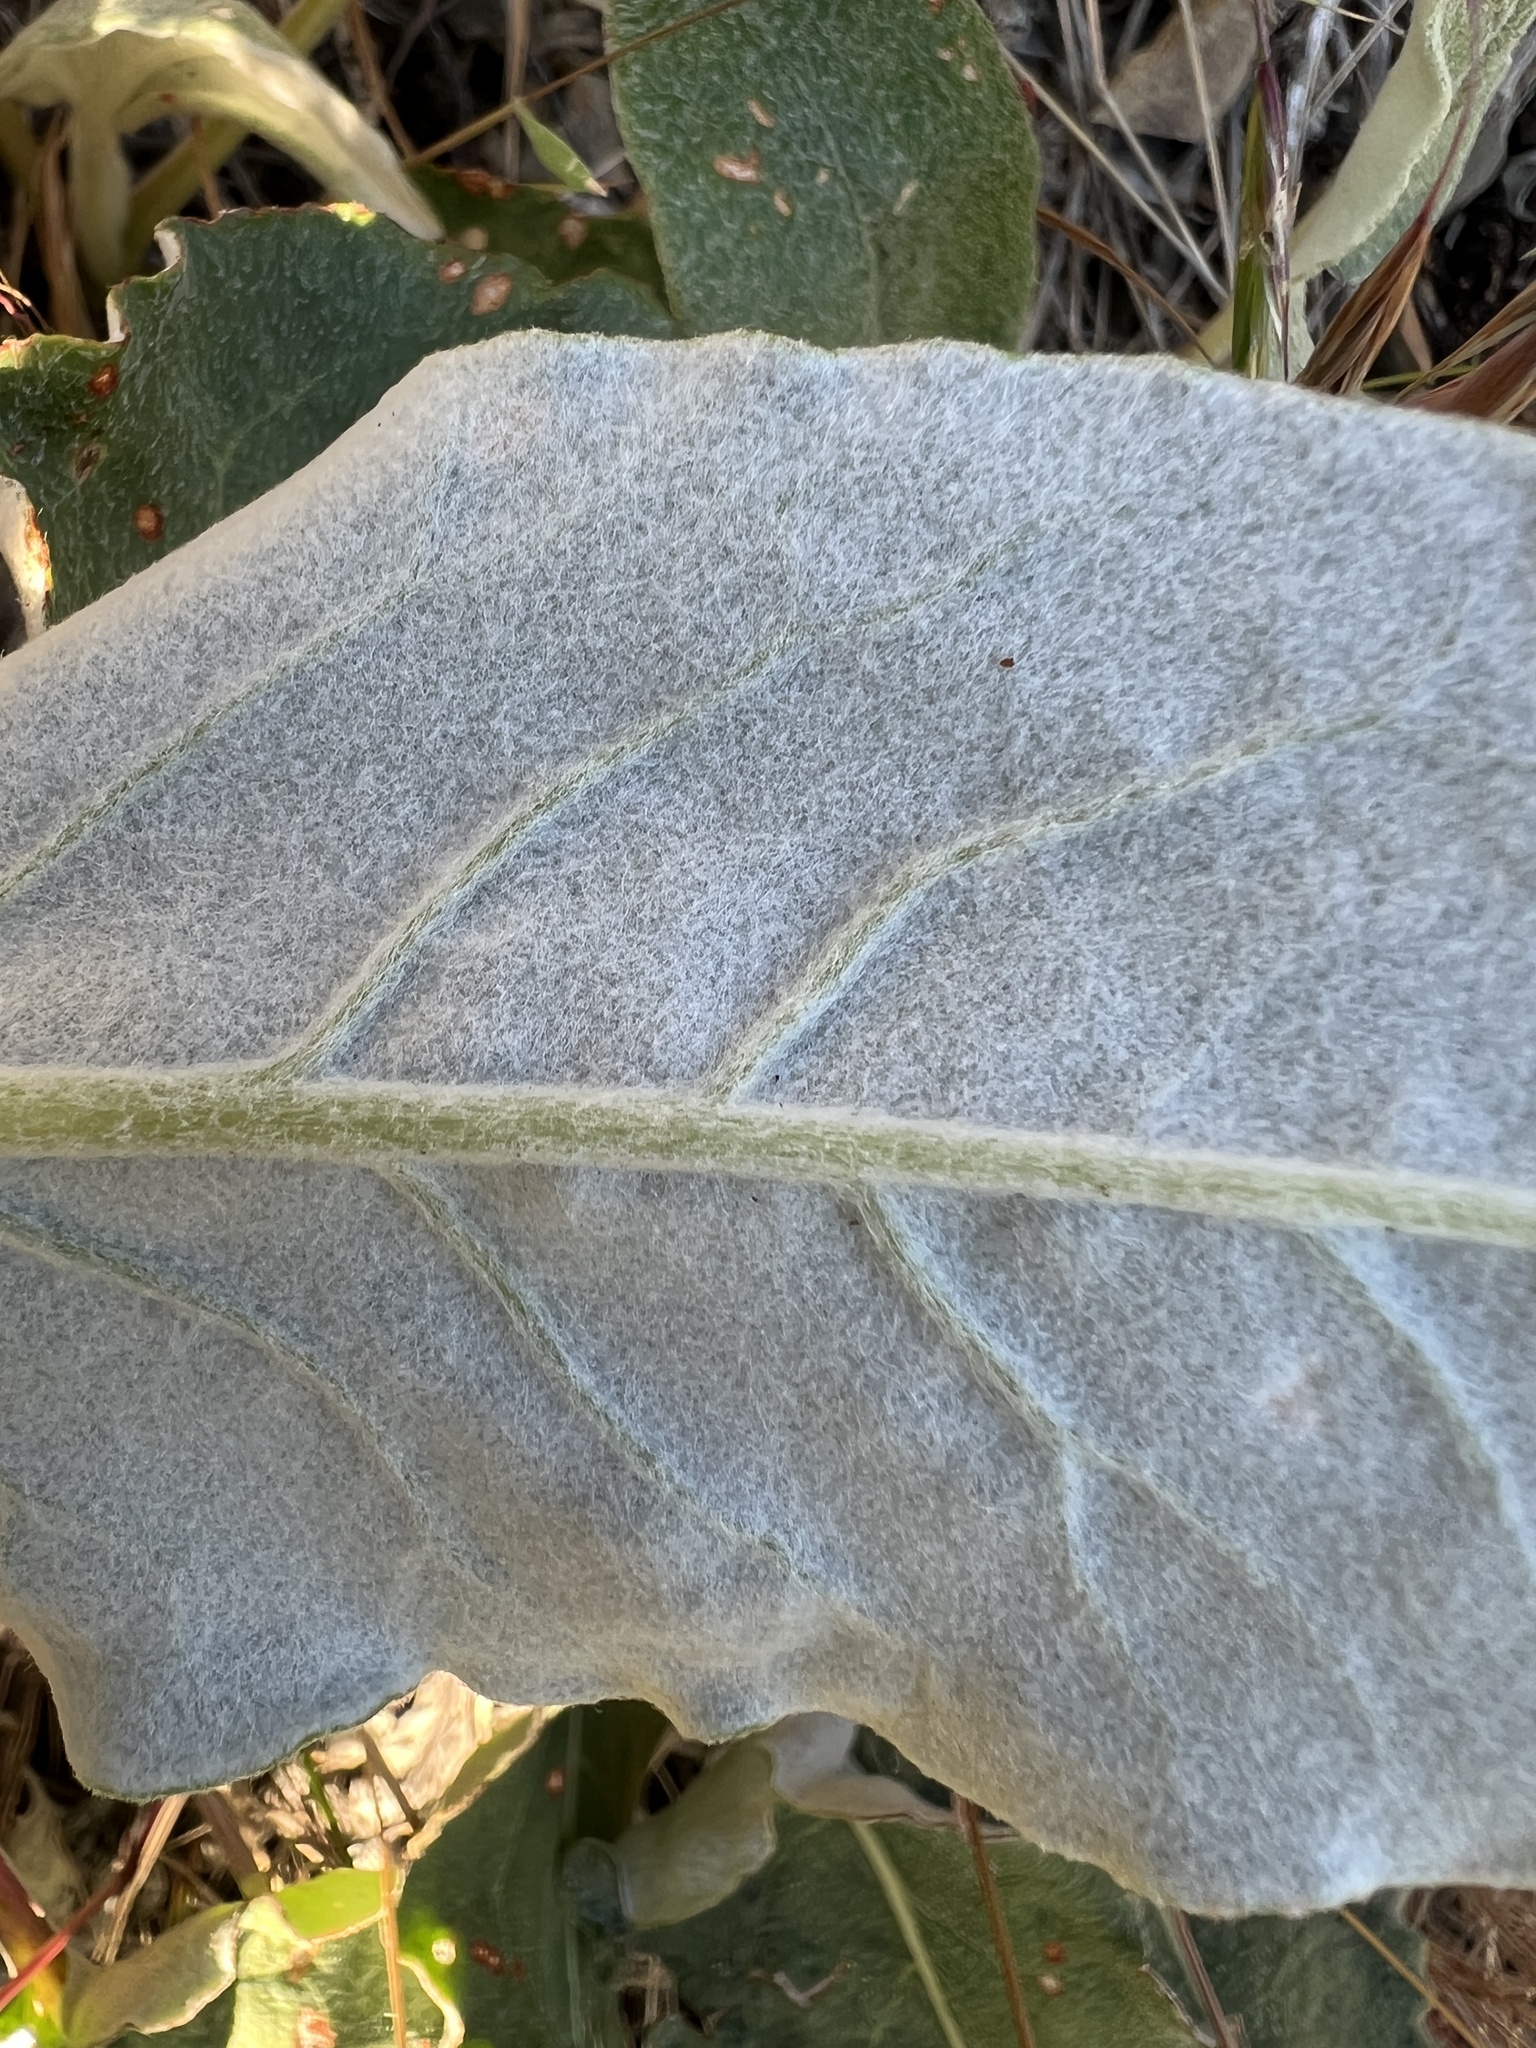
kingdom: Plantae
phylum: Tracheophyta
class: Magnoliopsida
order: Caryophyllales
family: Polygonaceae
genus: Eriogonum
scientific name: Eriogonum compositum
